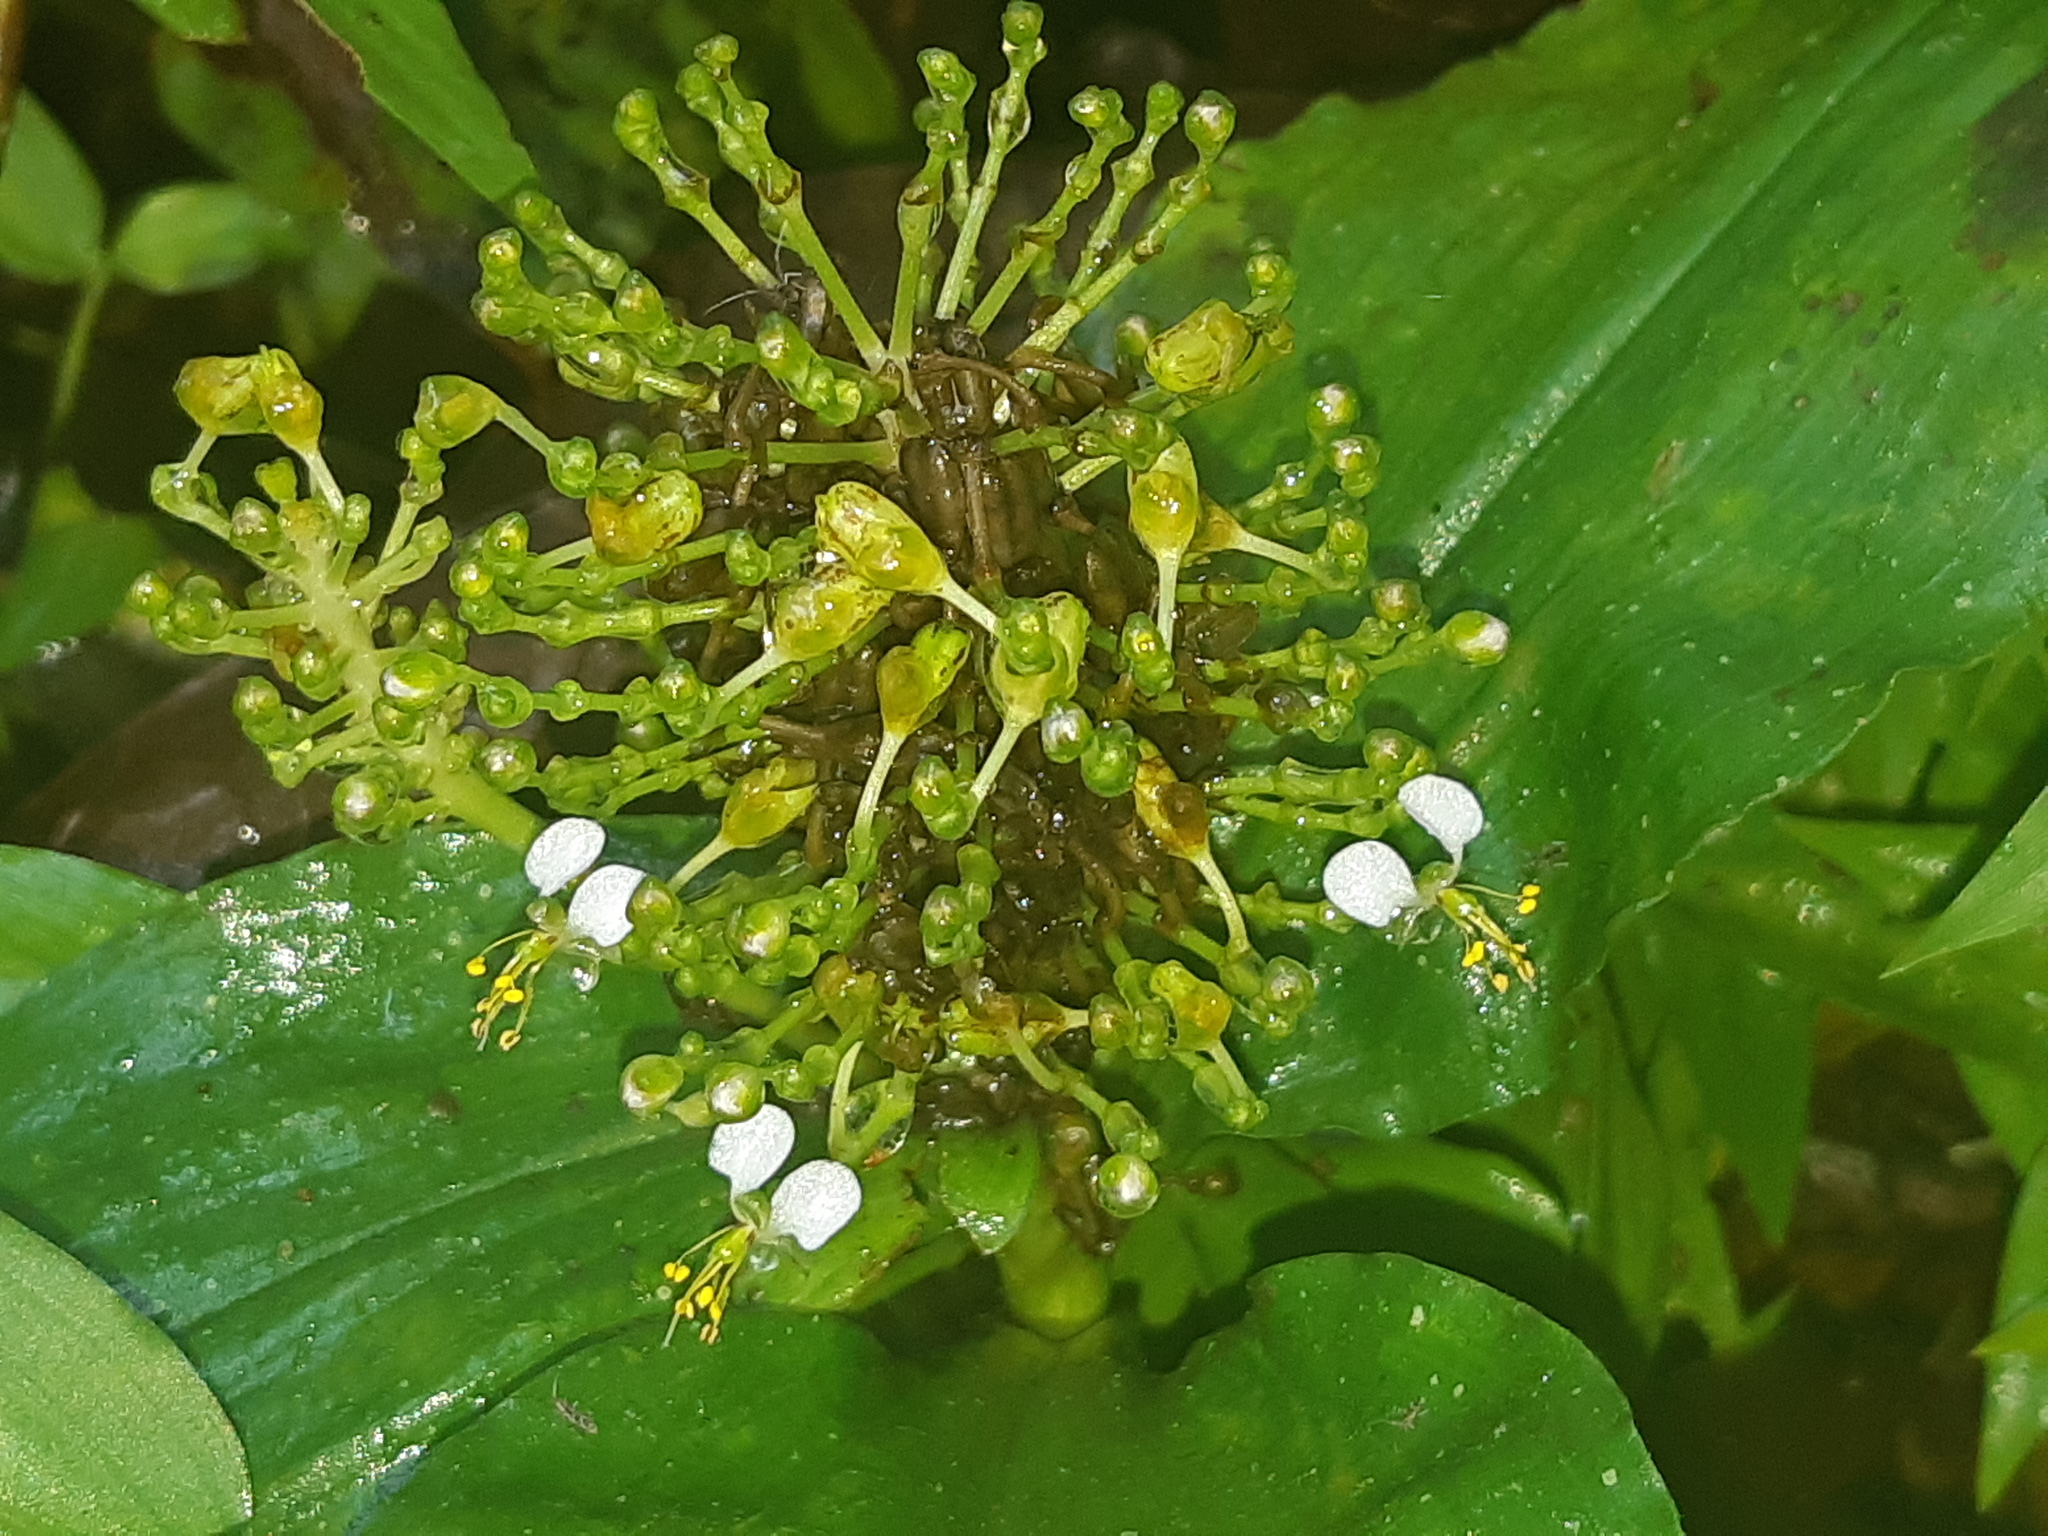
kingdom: Plantae
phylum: Tracheophyta
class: Liliopsida
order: Commelinales
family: Commelinaceae
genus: Aneilema
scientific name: Aneilema umbrosum
